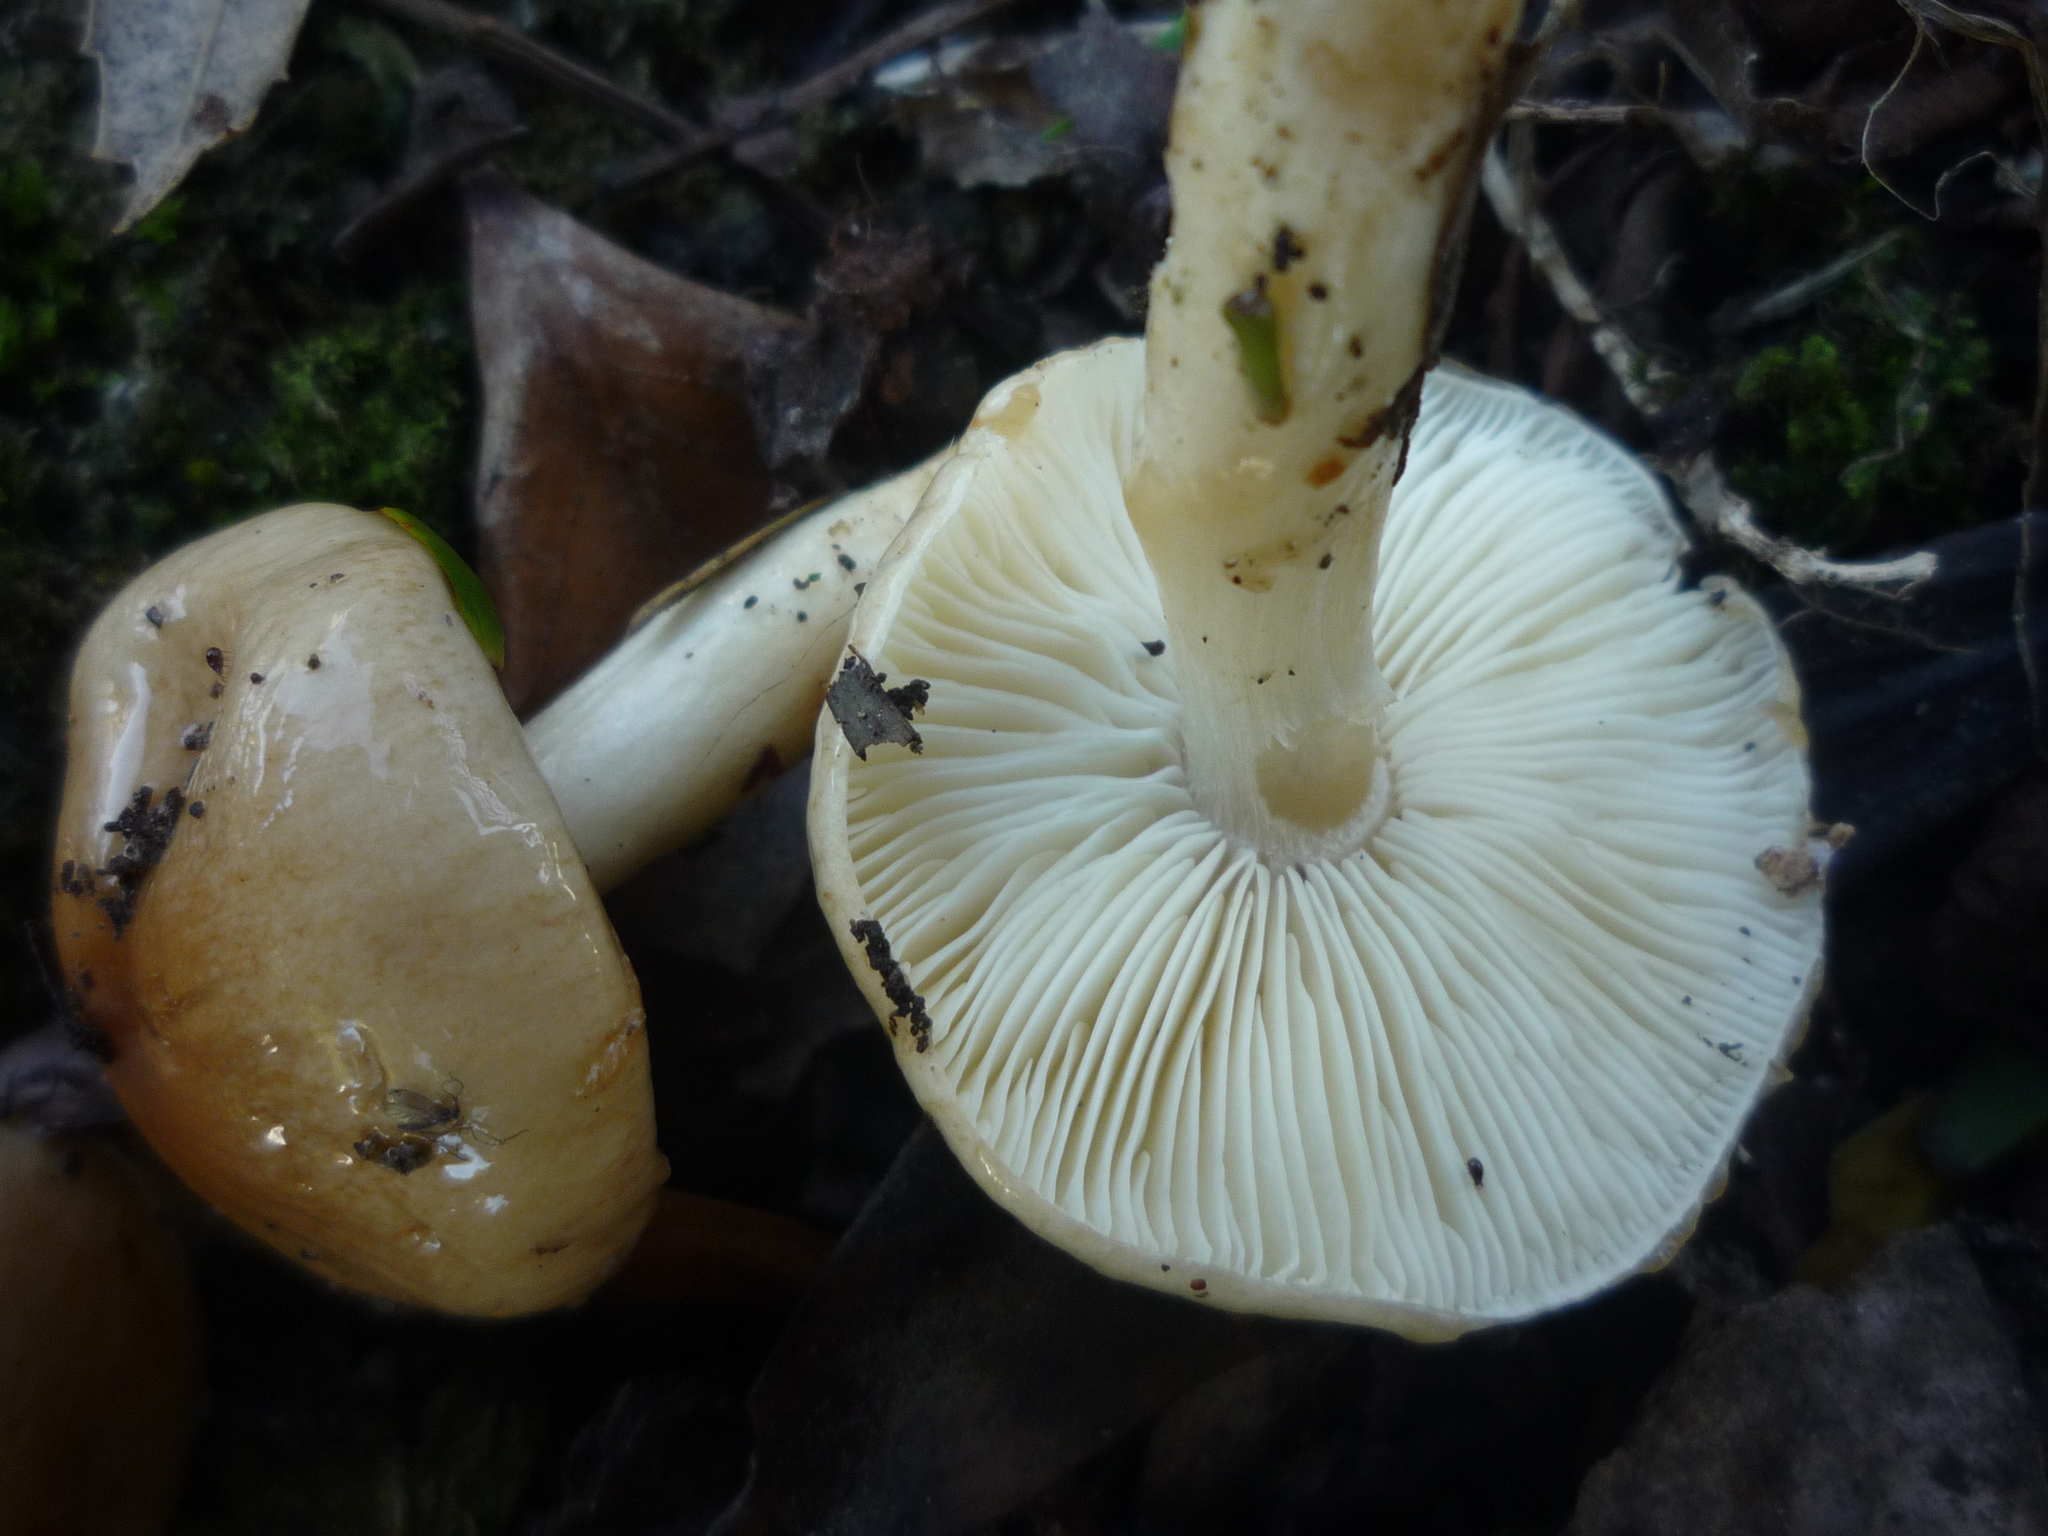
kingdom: Fungi
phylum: Basidiomycota
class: Agaricomycetes
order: Agaricales
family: Amanitaceae
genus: Zhuliangomyces
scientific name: Zhuliangomyces
